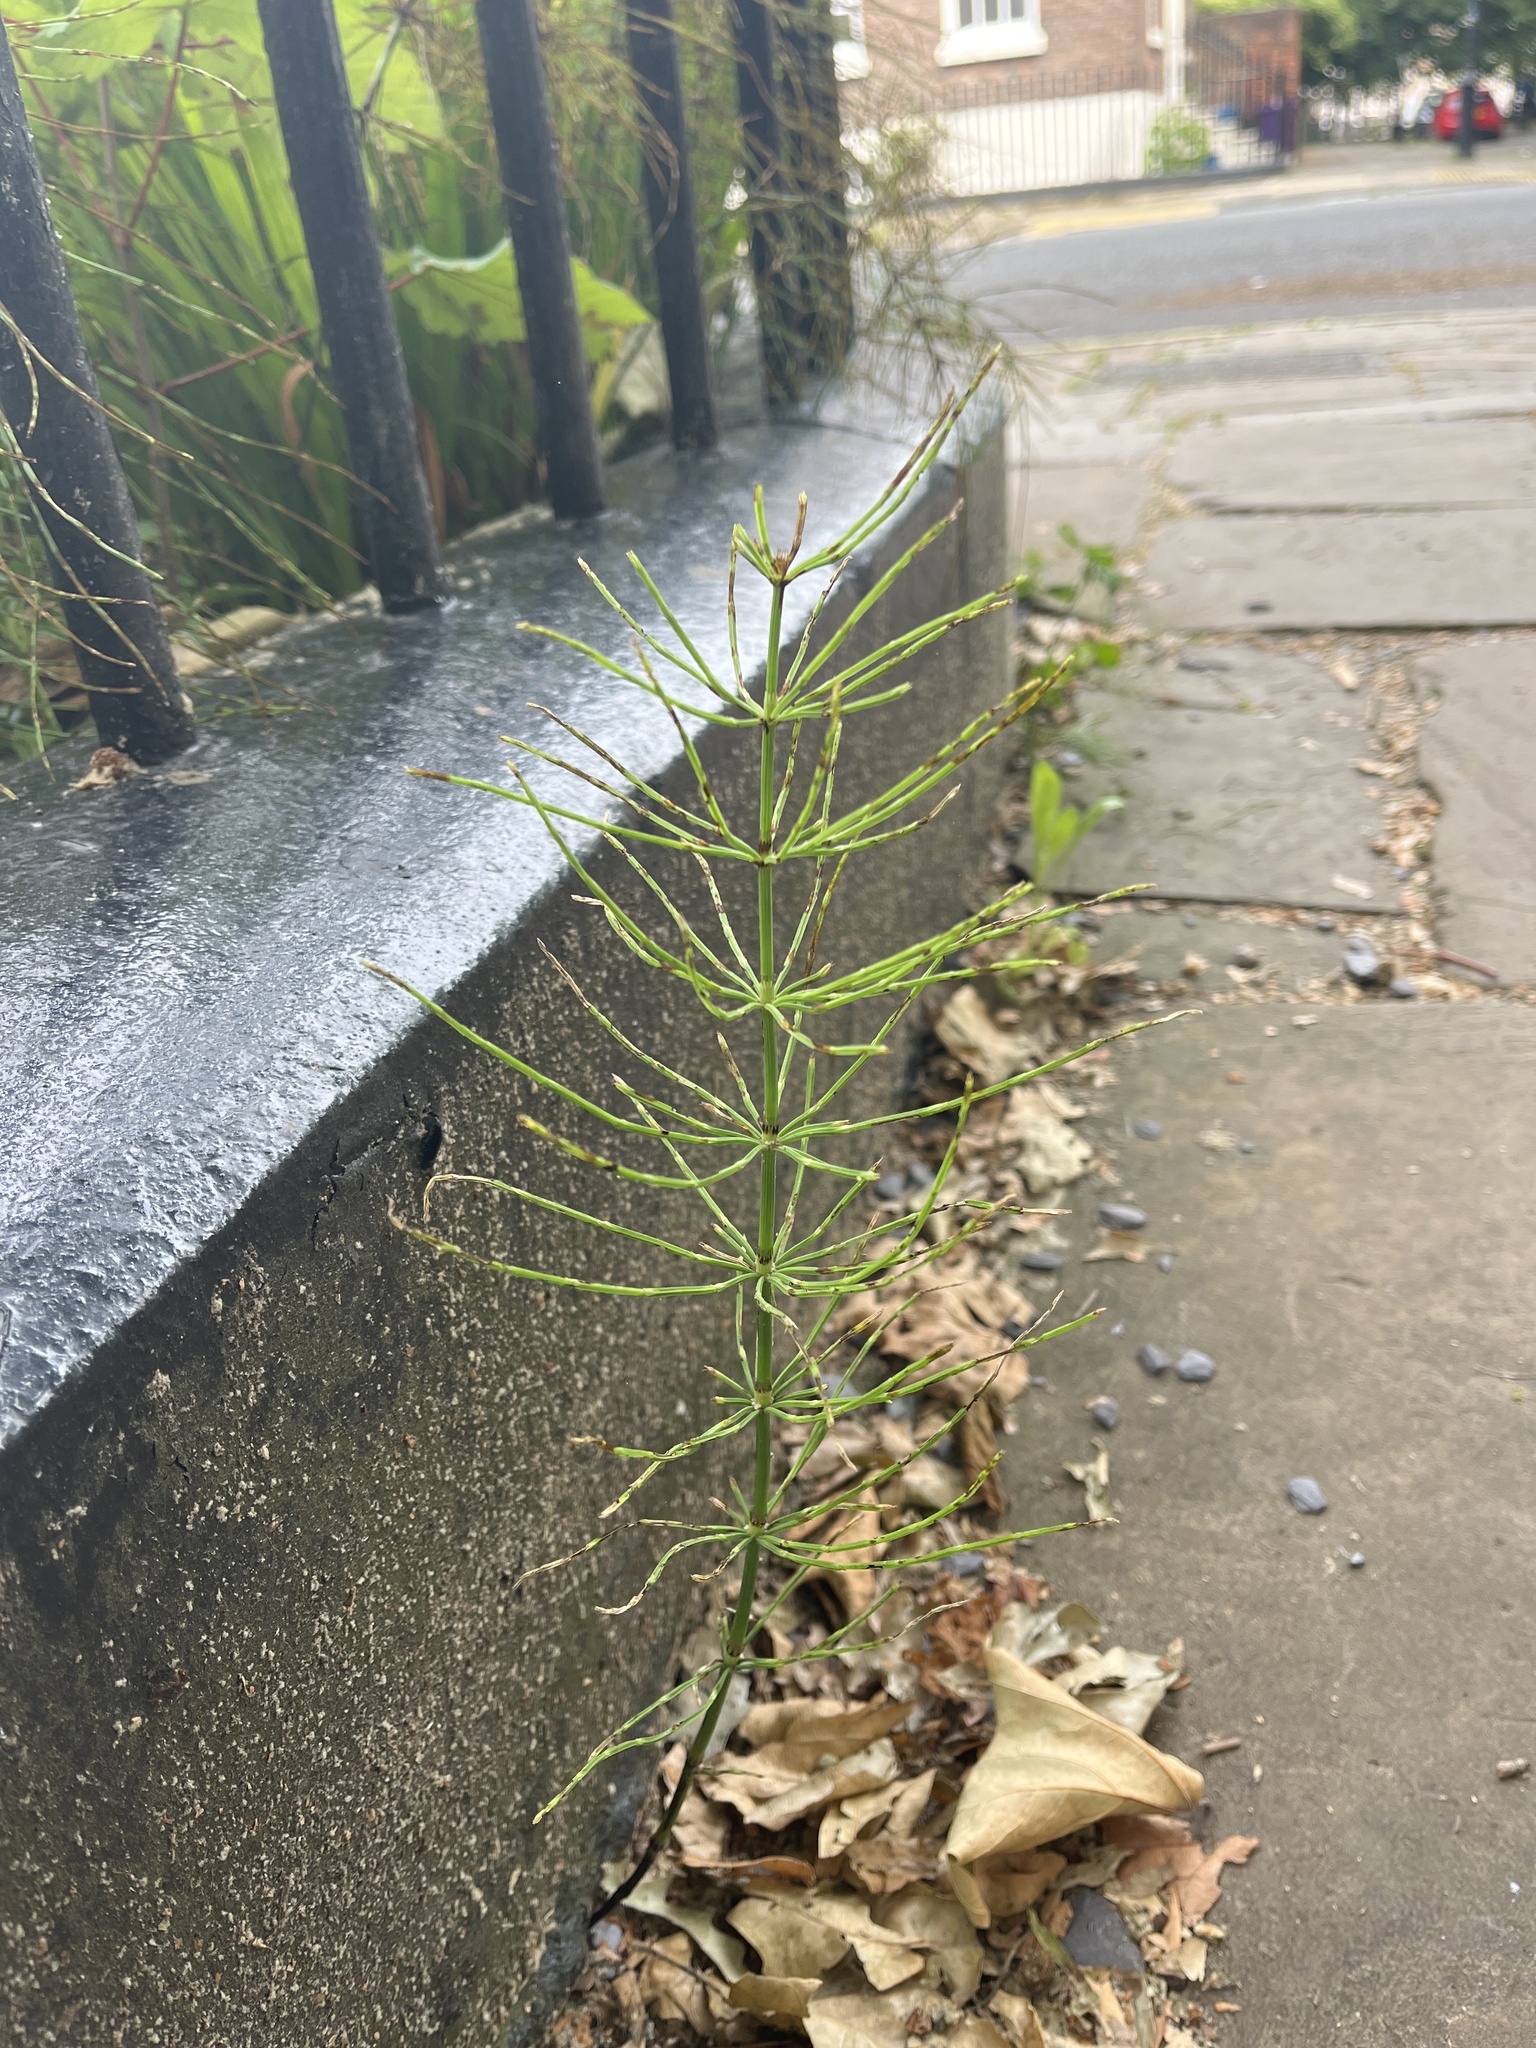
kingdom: Plantae
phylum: Tracheophyta
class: Polypodiopsida
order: Equisetales
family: Equisetaceae
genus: Equisetum
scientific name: Equisetum arvense
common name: Field horsetail
